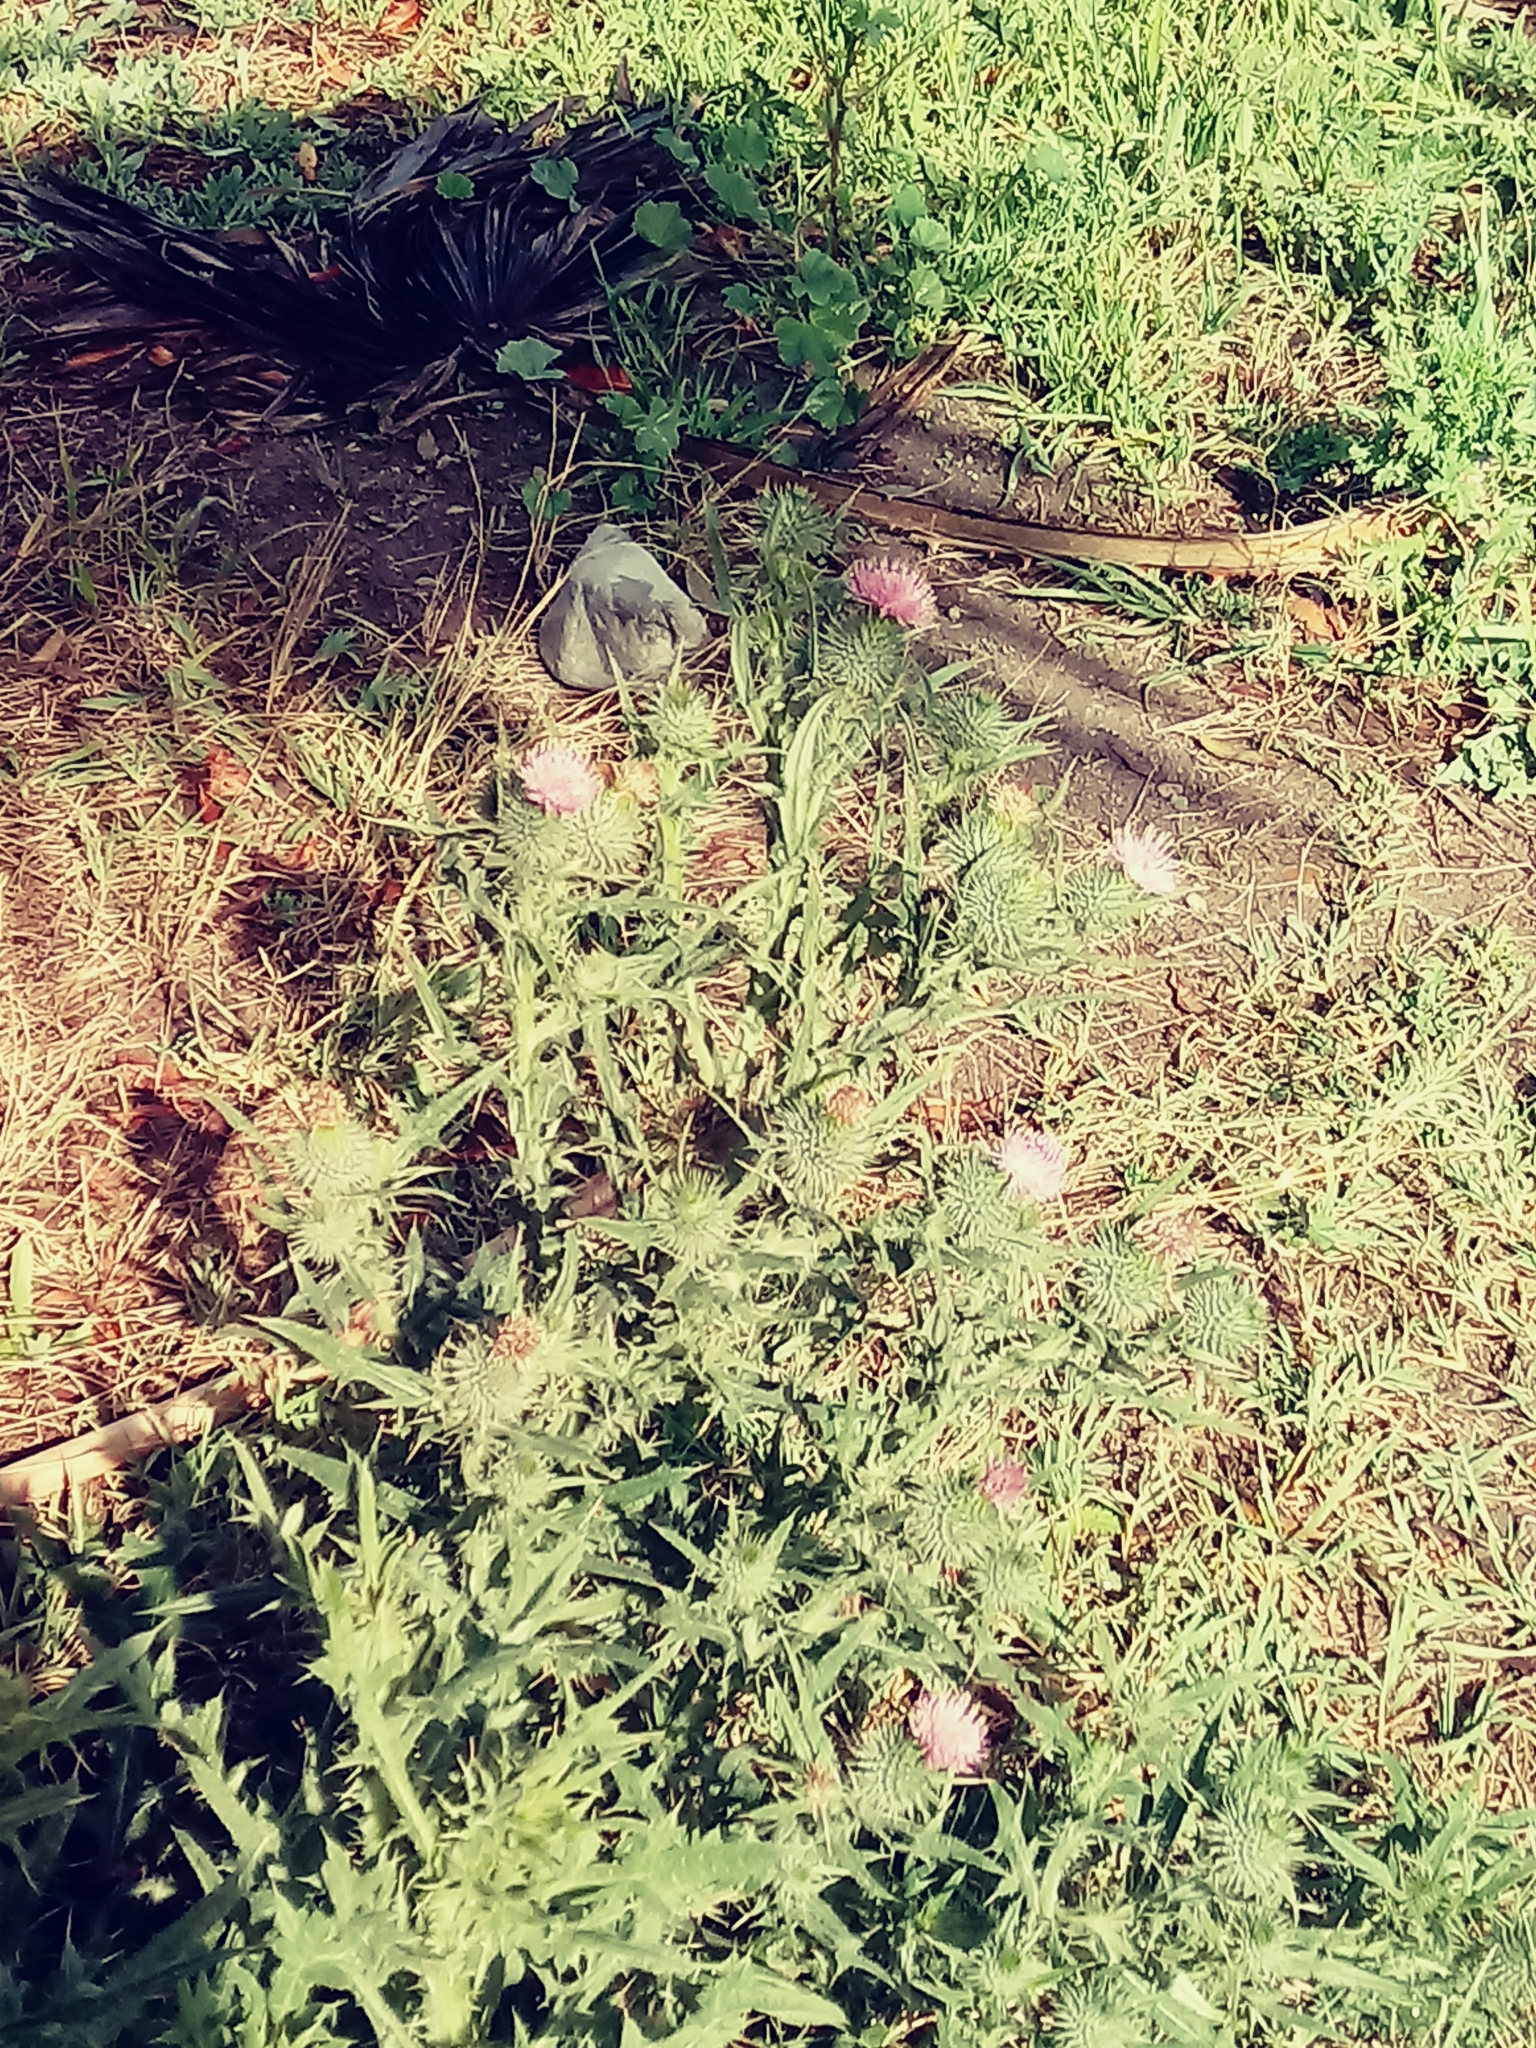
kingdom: Plantae
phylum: Tracheophyta
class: Magnoliopsida
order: Asterales
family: Asteraceae
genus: Cirsium
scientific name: Cirsium vulgare
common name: Bull thistle
